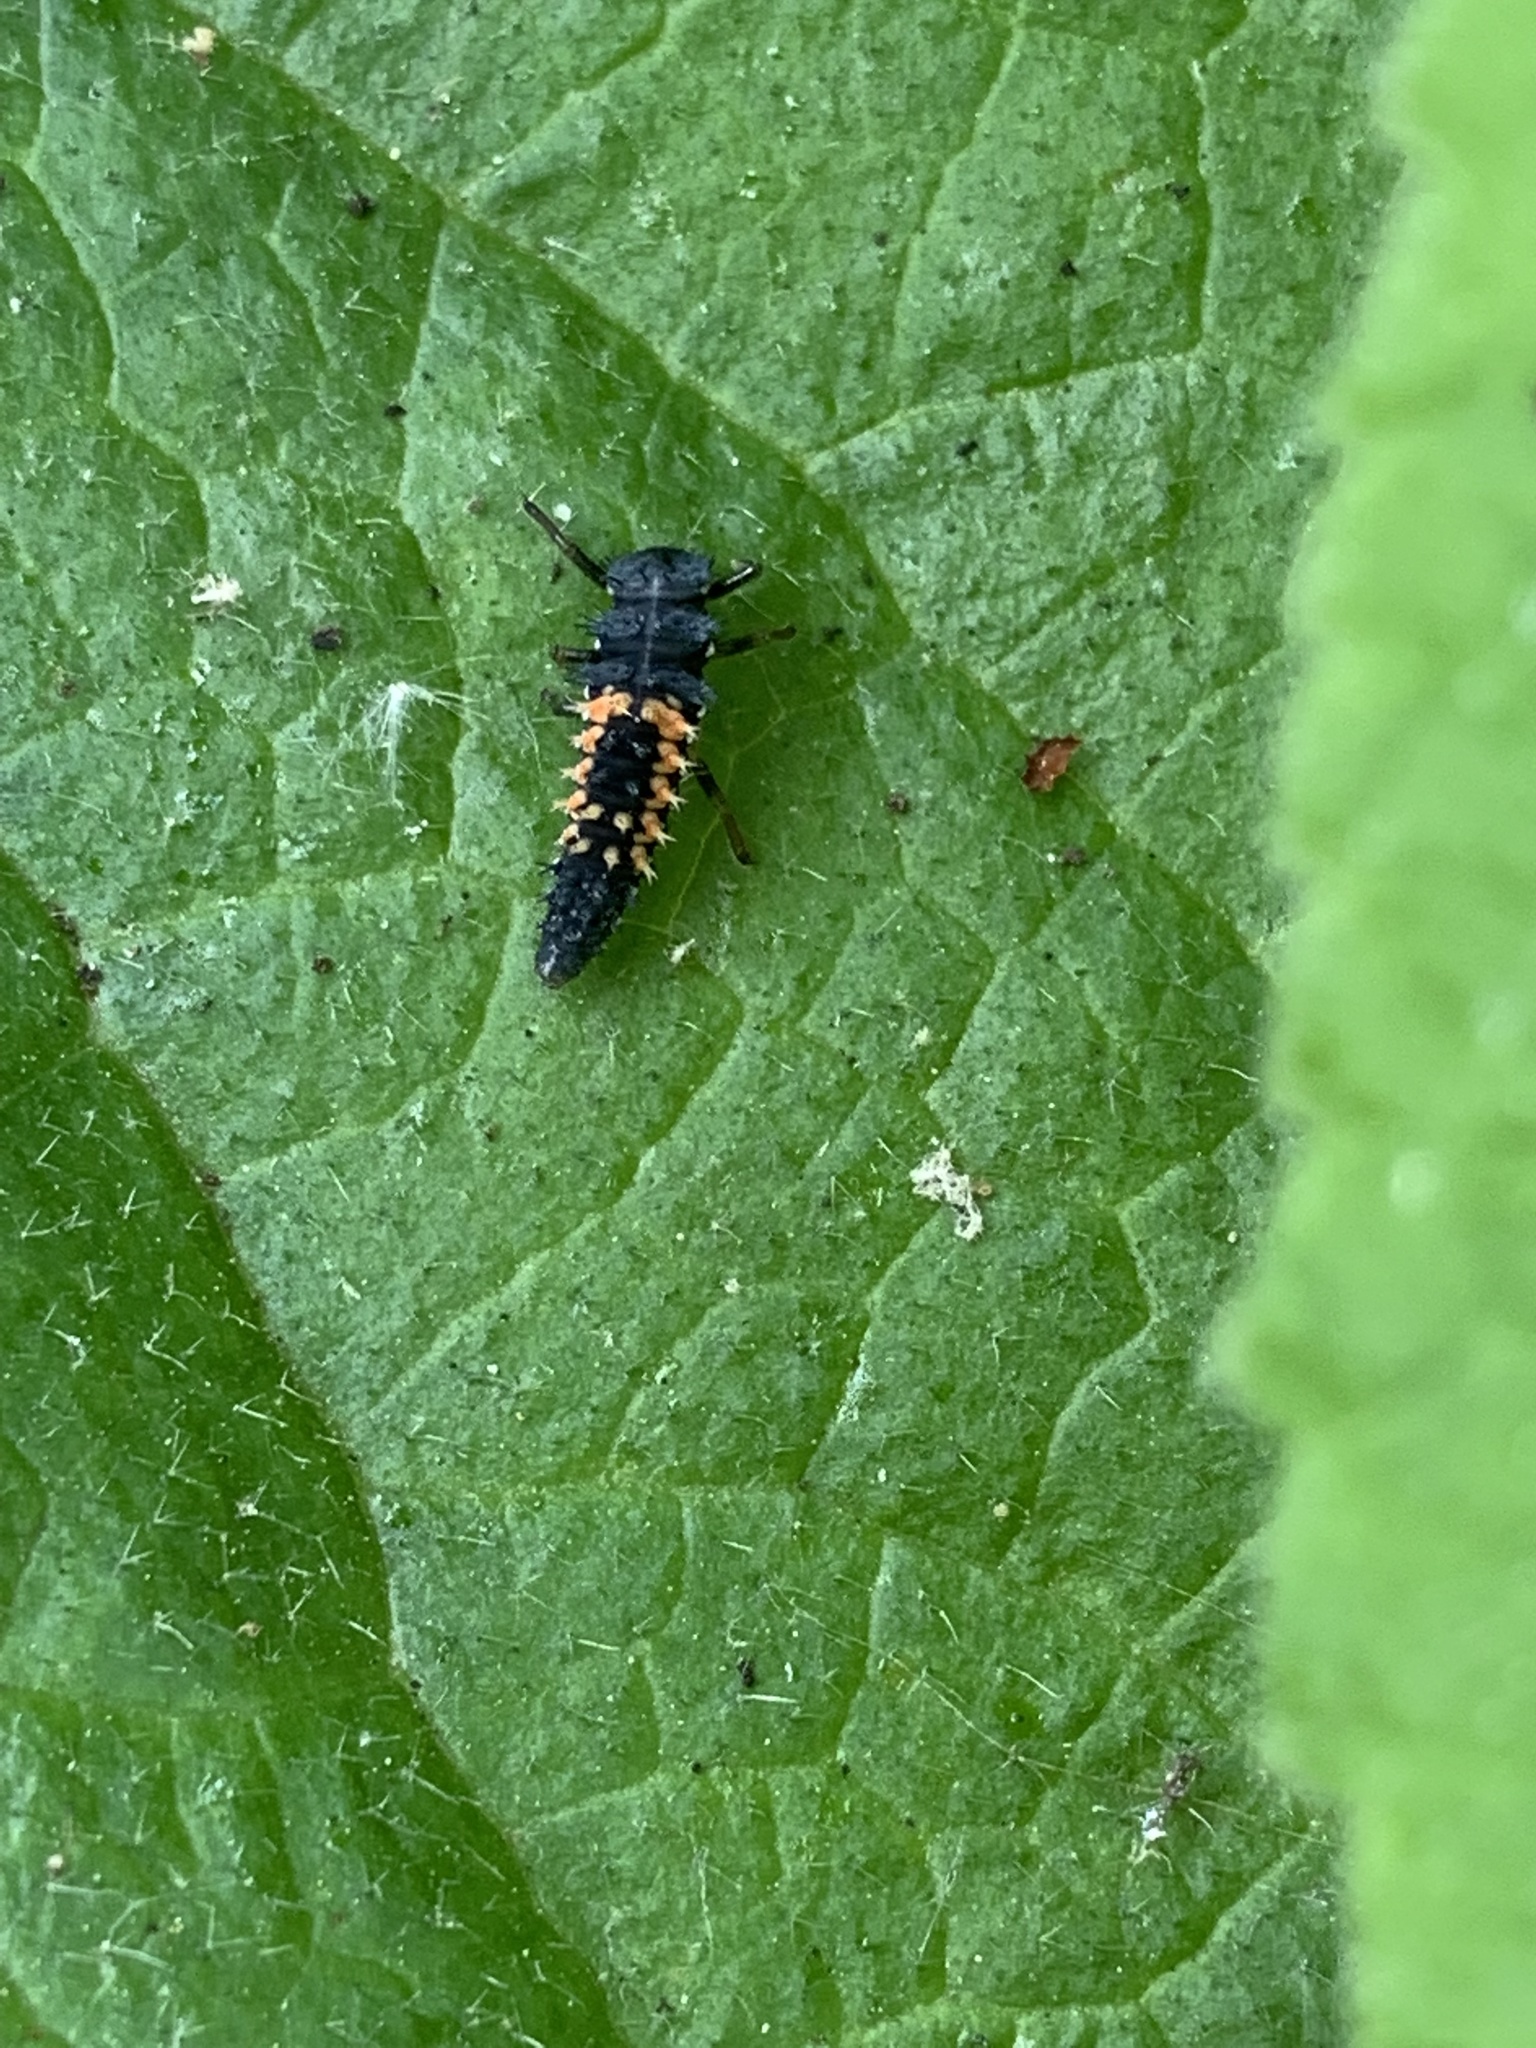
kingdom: Animalia
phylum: Arthropoda
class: Insecta
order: Coleoptera
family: Coccinellidae
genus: Harmonia
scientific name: Harmonia axyridis
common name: Harlequin ladybird
